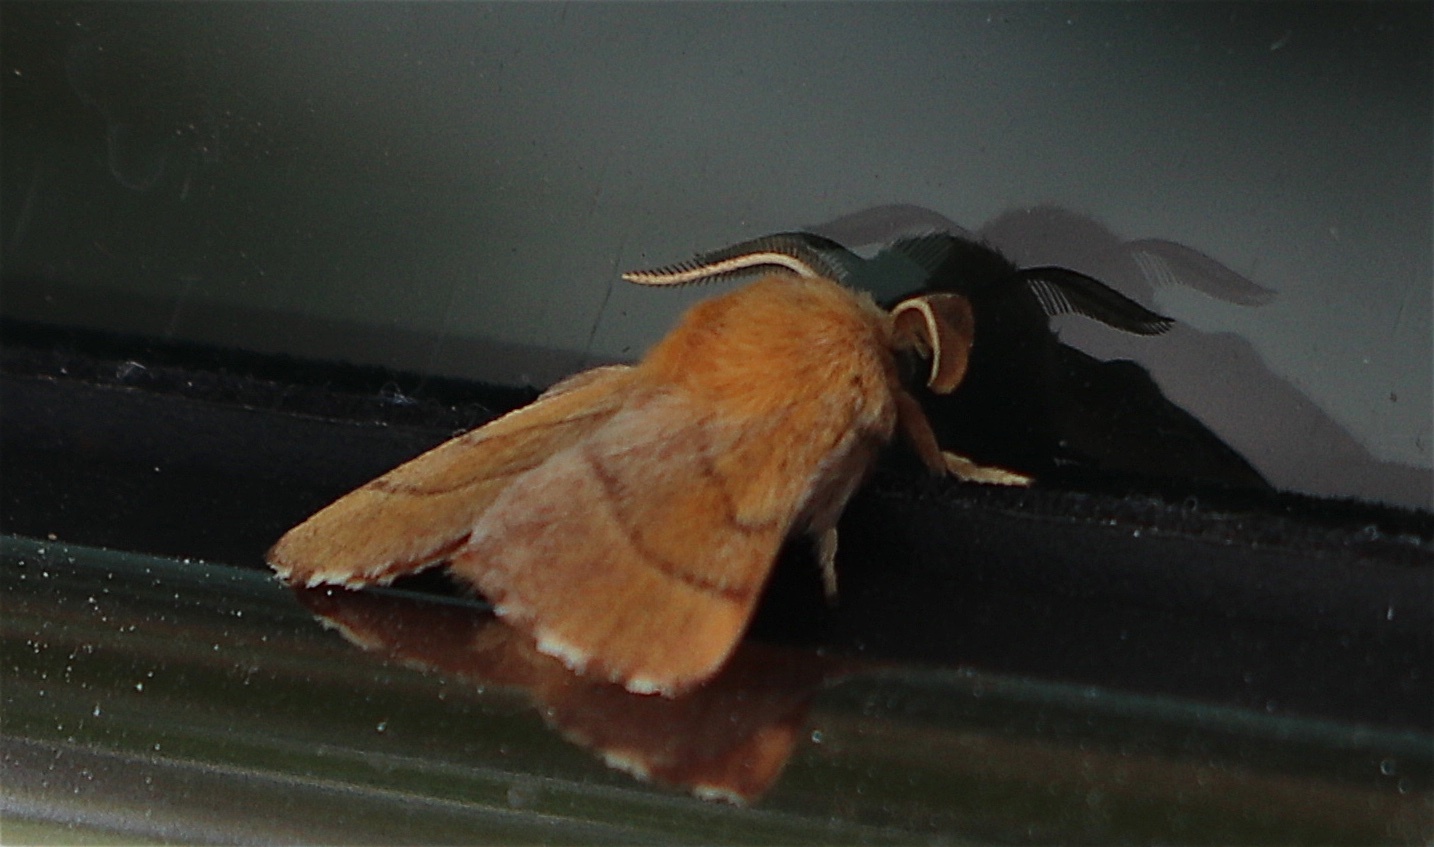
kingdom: Animalia
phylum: Arthropoda
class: Insecta
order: Lepidoptera
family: Lasiocampidae
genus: Malacosoma
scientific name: Malacosoma disstria
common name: Forest tent caterpillar
